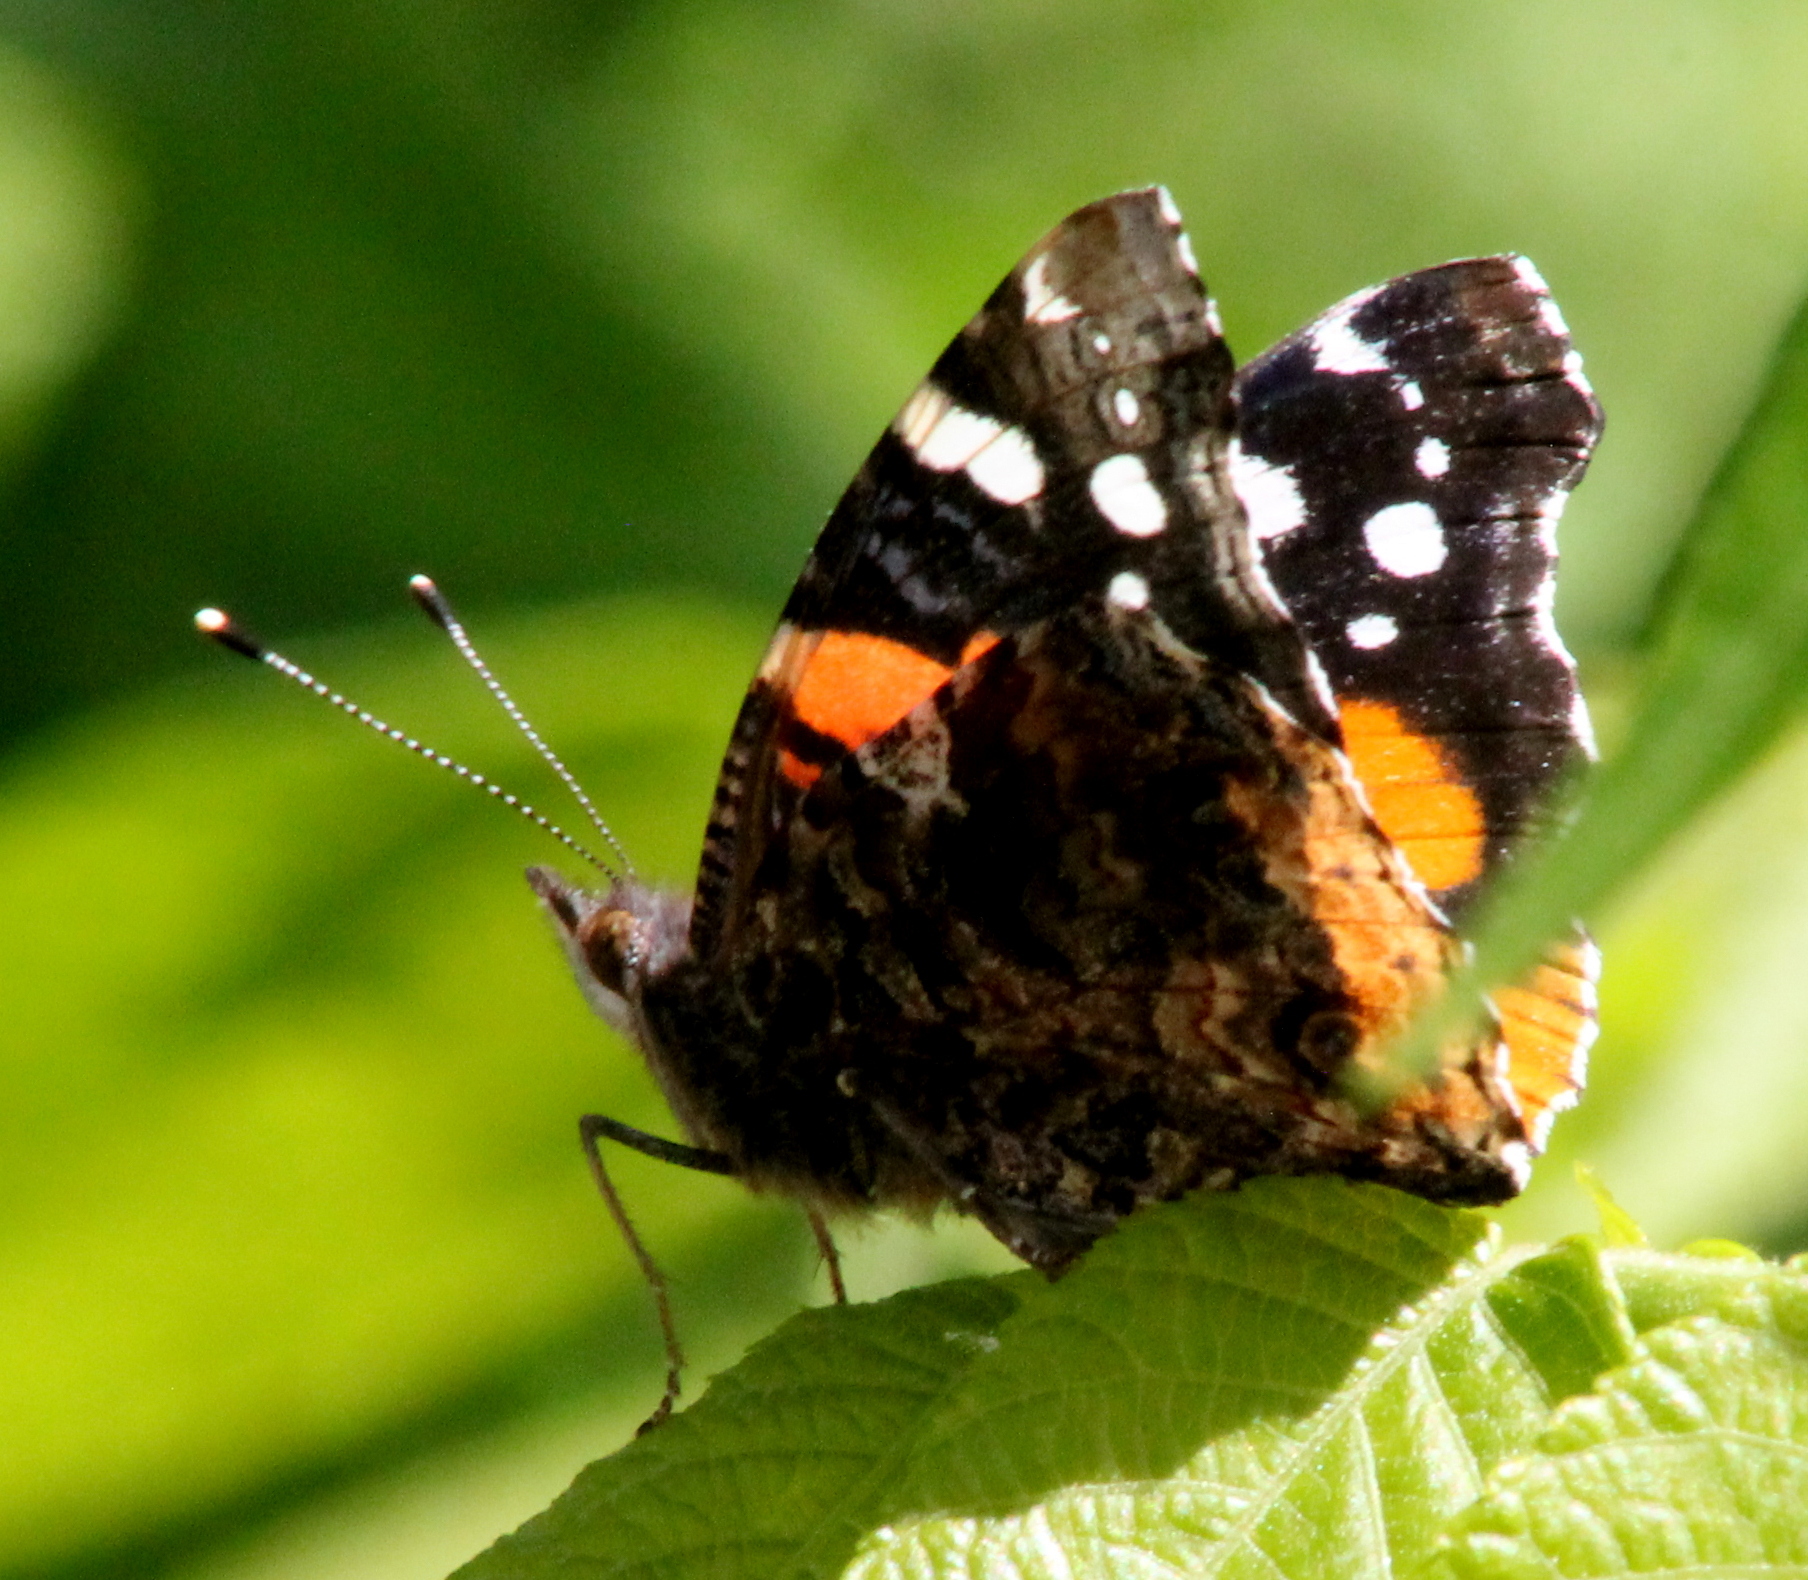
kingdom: Animalia
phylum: Arthropoda
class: Insecta
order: Lepidoptera
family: Nymphalidae
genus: Vanessa
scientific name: Vanessa atalanta
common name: Red admiral
